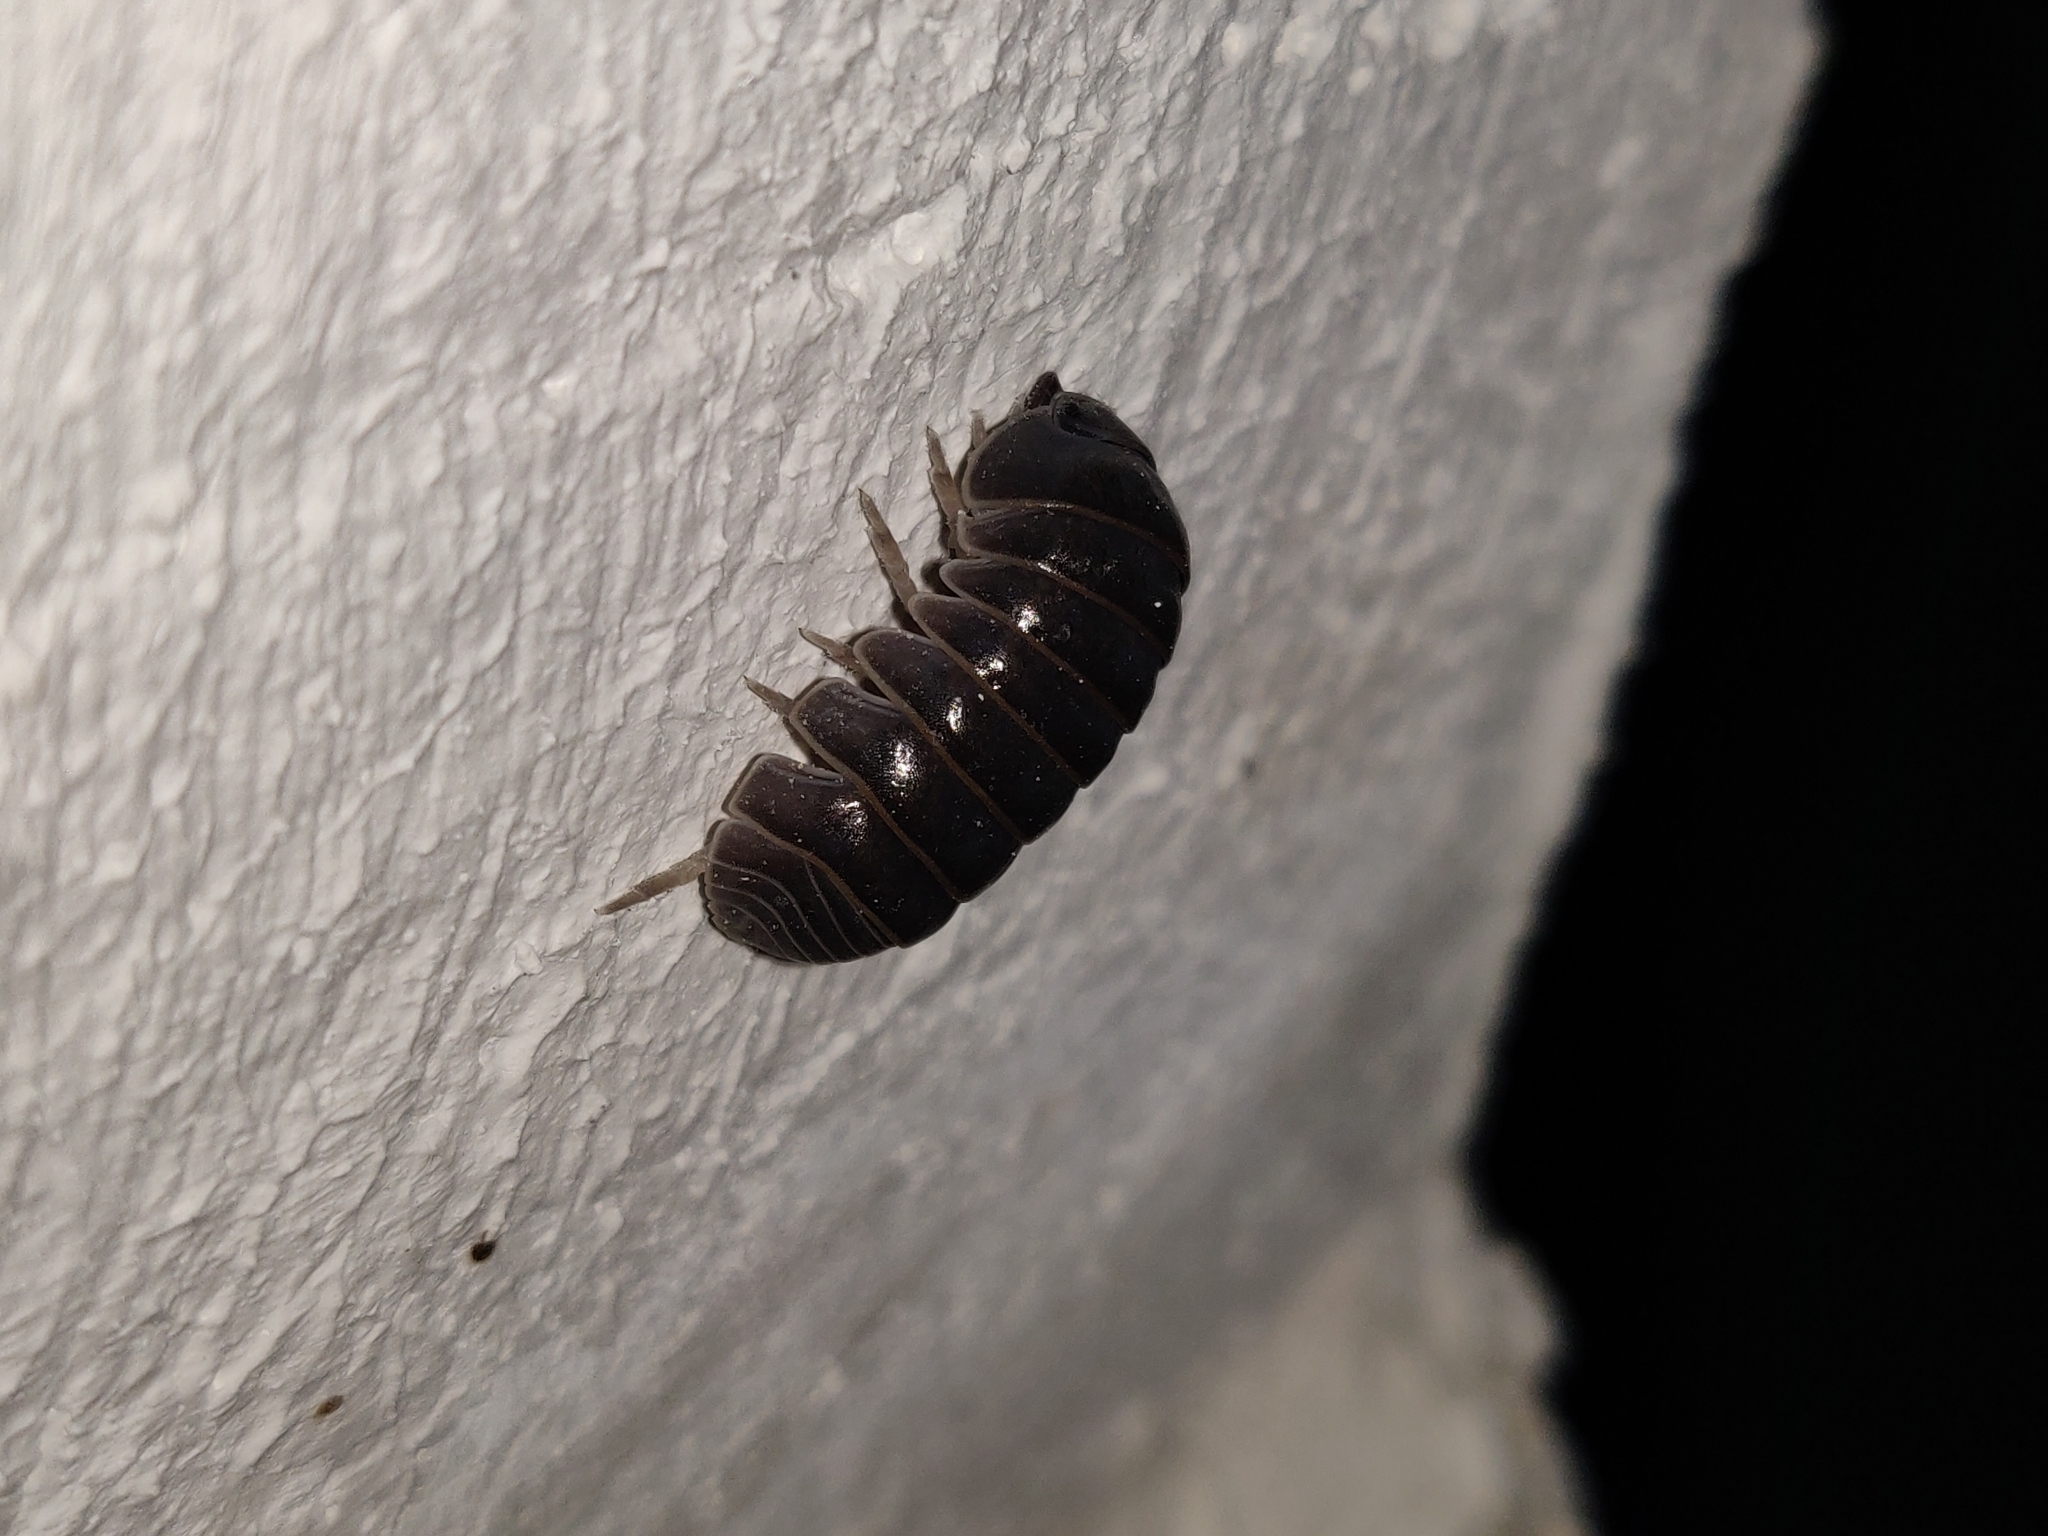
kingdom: Animalia
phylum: Arthropoda
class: Malacostraca
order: Isopoda
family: Armadillidae
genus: Armadillo
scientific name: Armadillo officinalis
